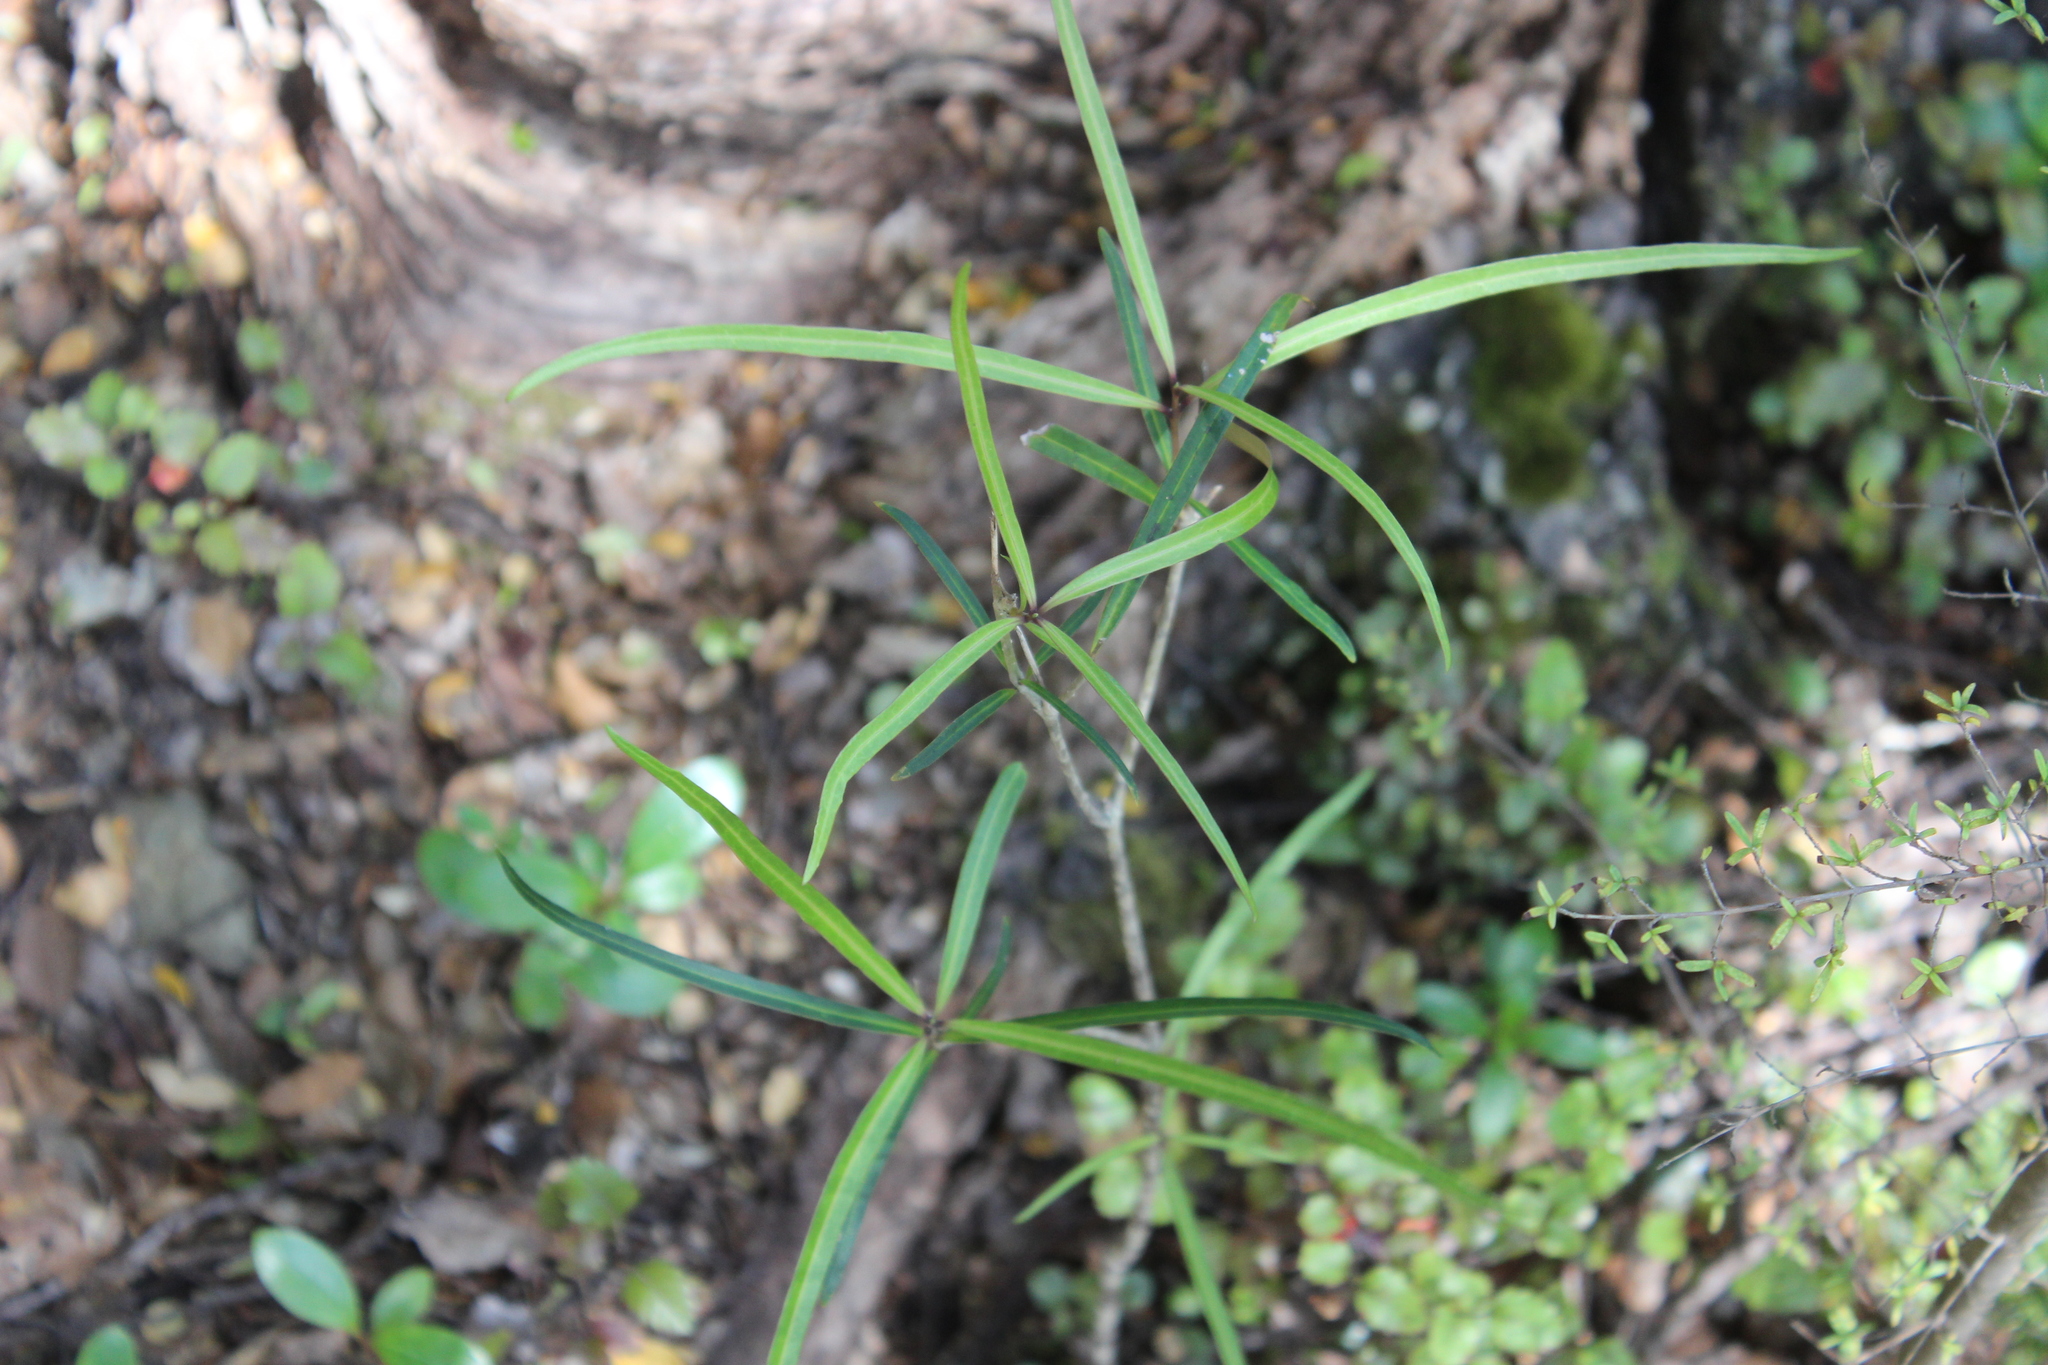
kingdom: Plantae
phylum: Tracheophyta
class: Magnoliopsida
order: Lamiales
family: Oleaceae
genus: Nestegis
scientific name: Nestegis lanceolata
